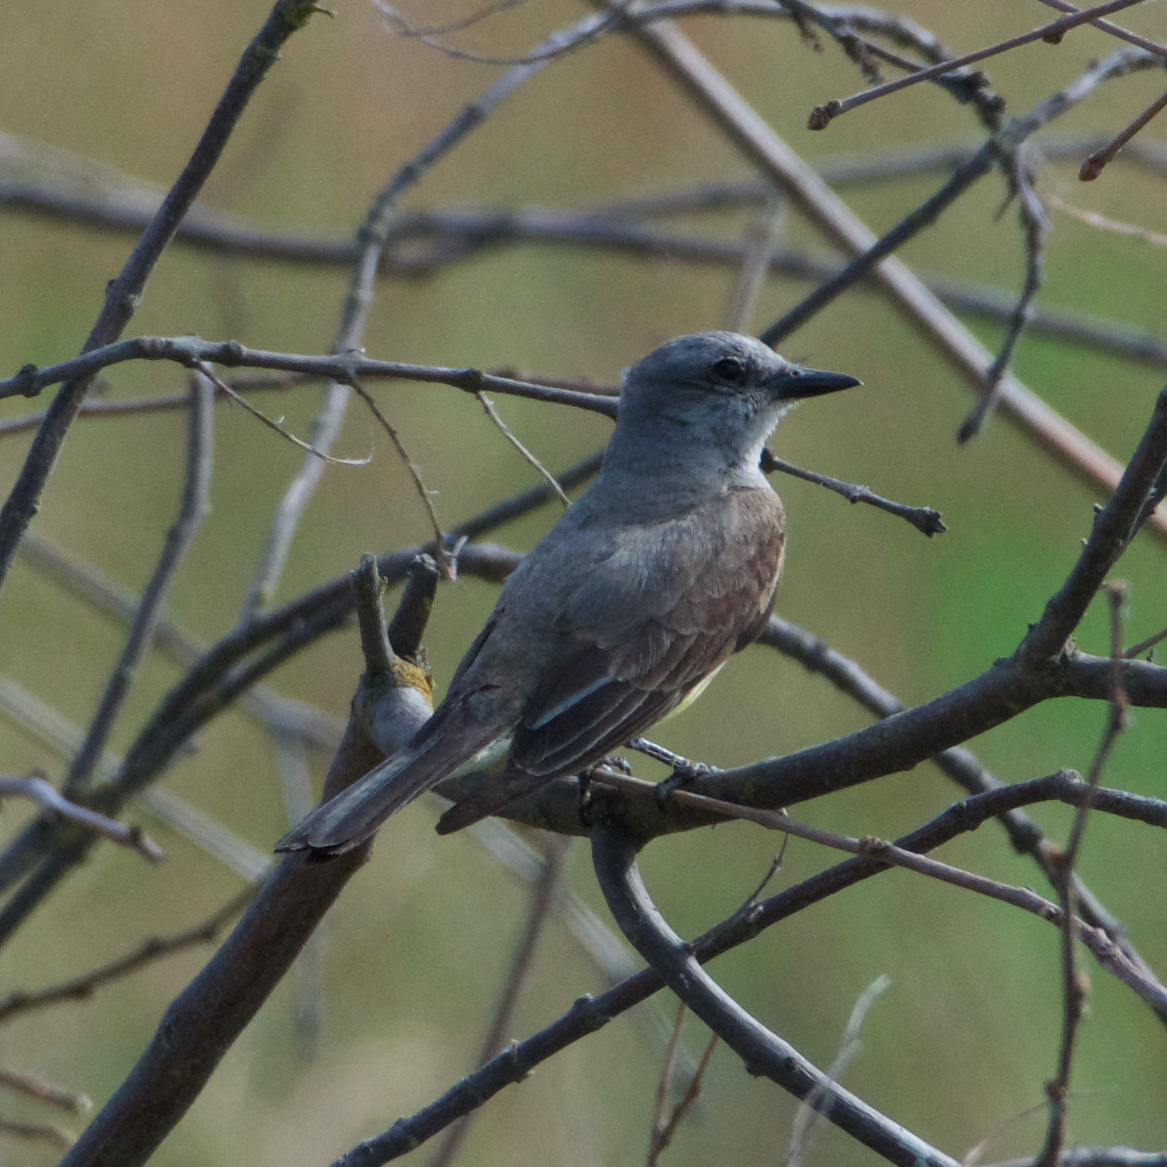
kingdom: Animalia
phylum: Chordata
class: Aves
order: Passeriformes
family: Tyrannidae
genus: Tyrannus
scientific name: Tyrannus verticalis
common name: Western kingbird
